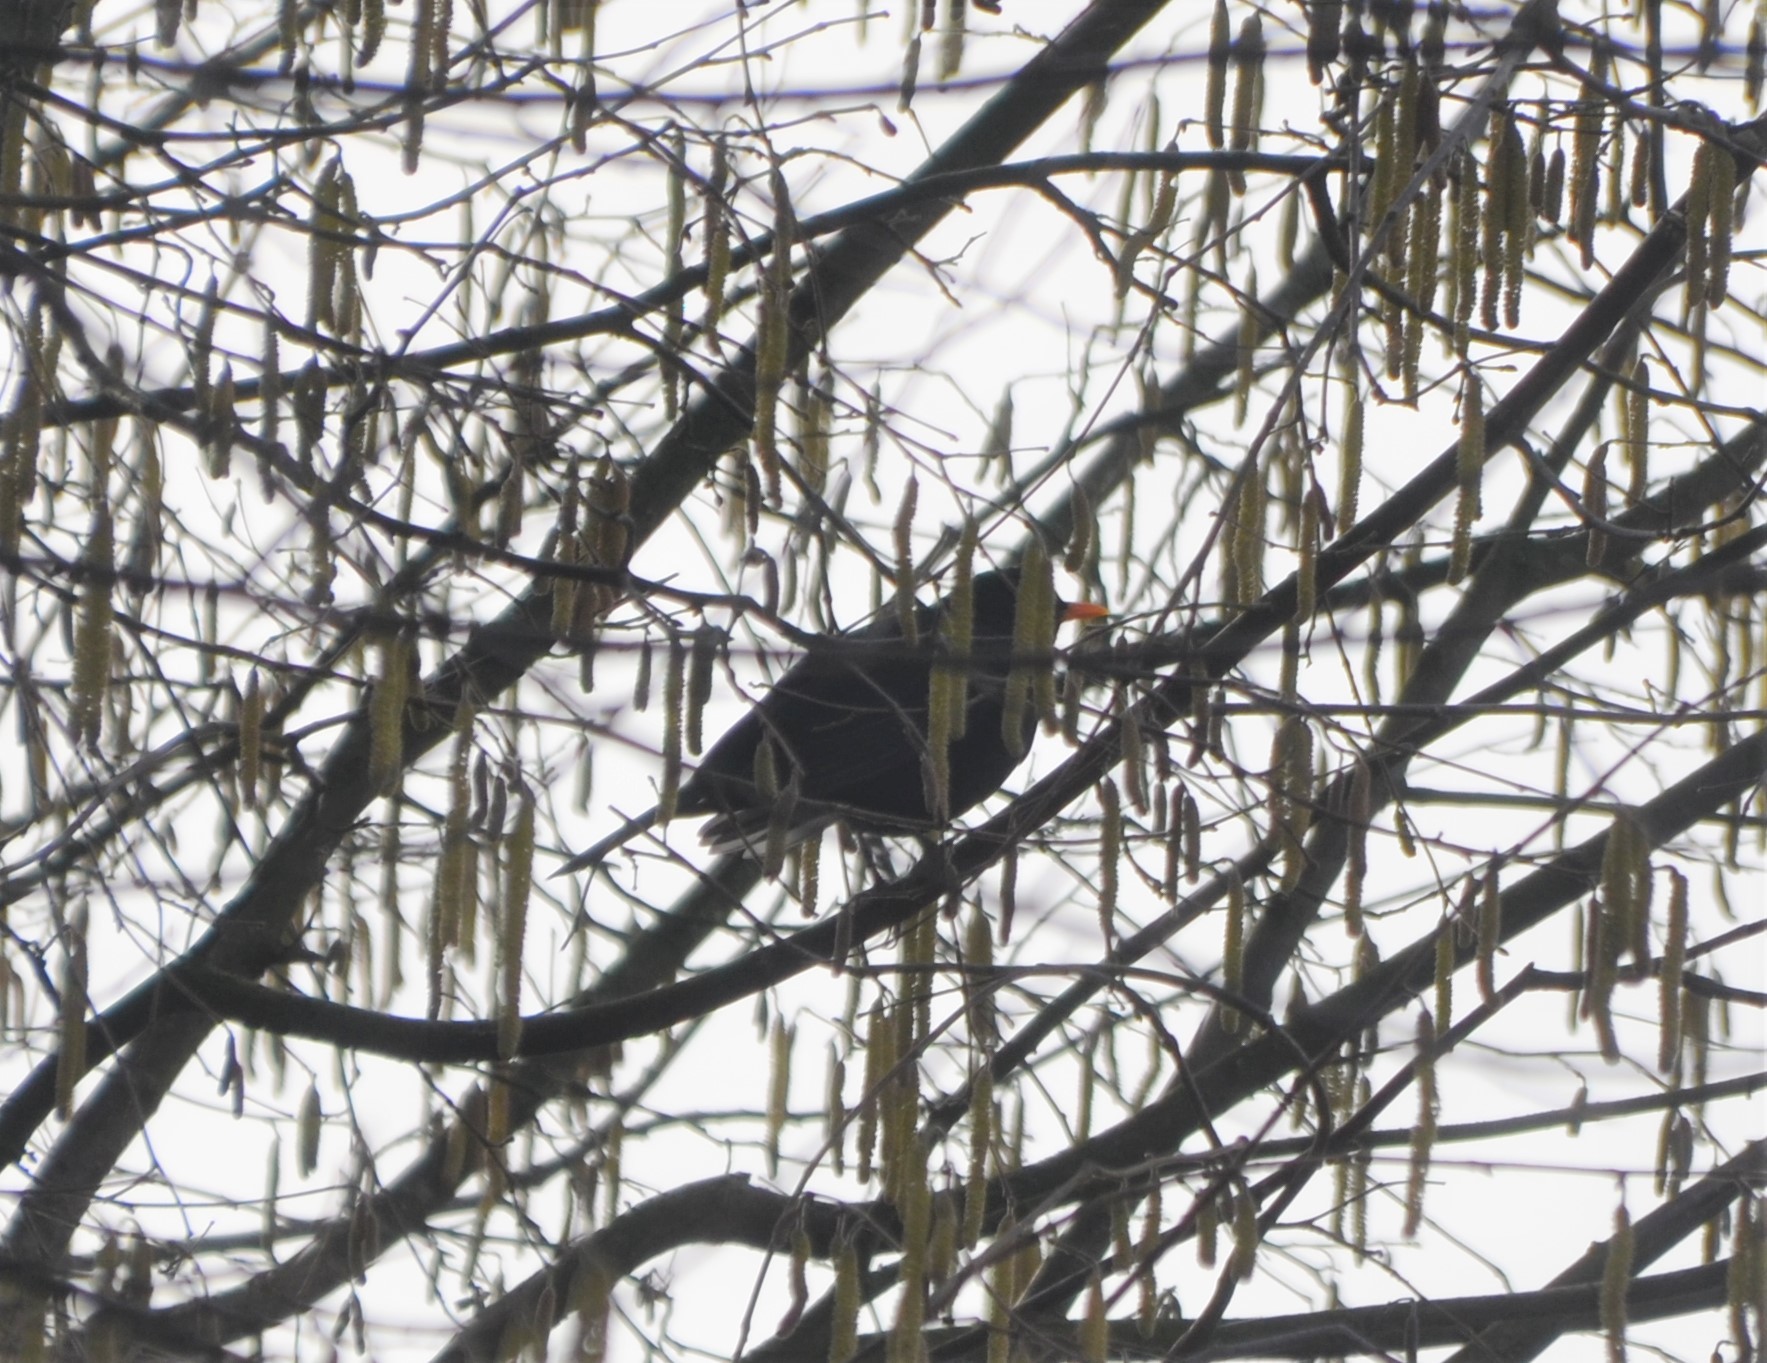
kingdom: Animalia
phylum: Chordata
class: Aves
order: Passeriformes
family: Turdidae
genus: Turdus
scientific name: Turdus merula
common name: Common blackbird
